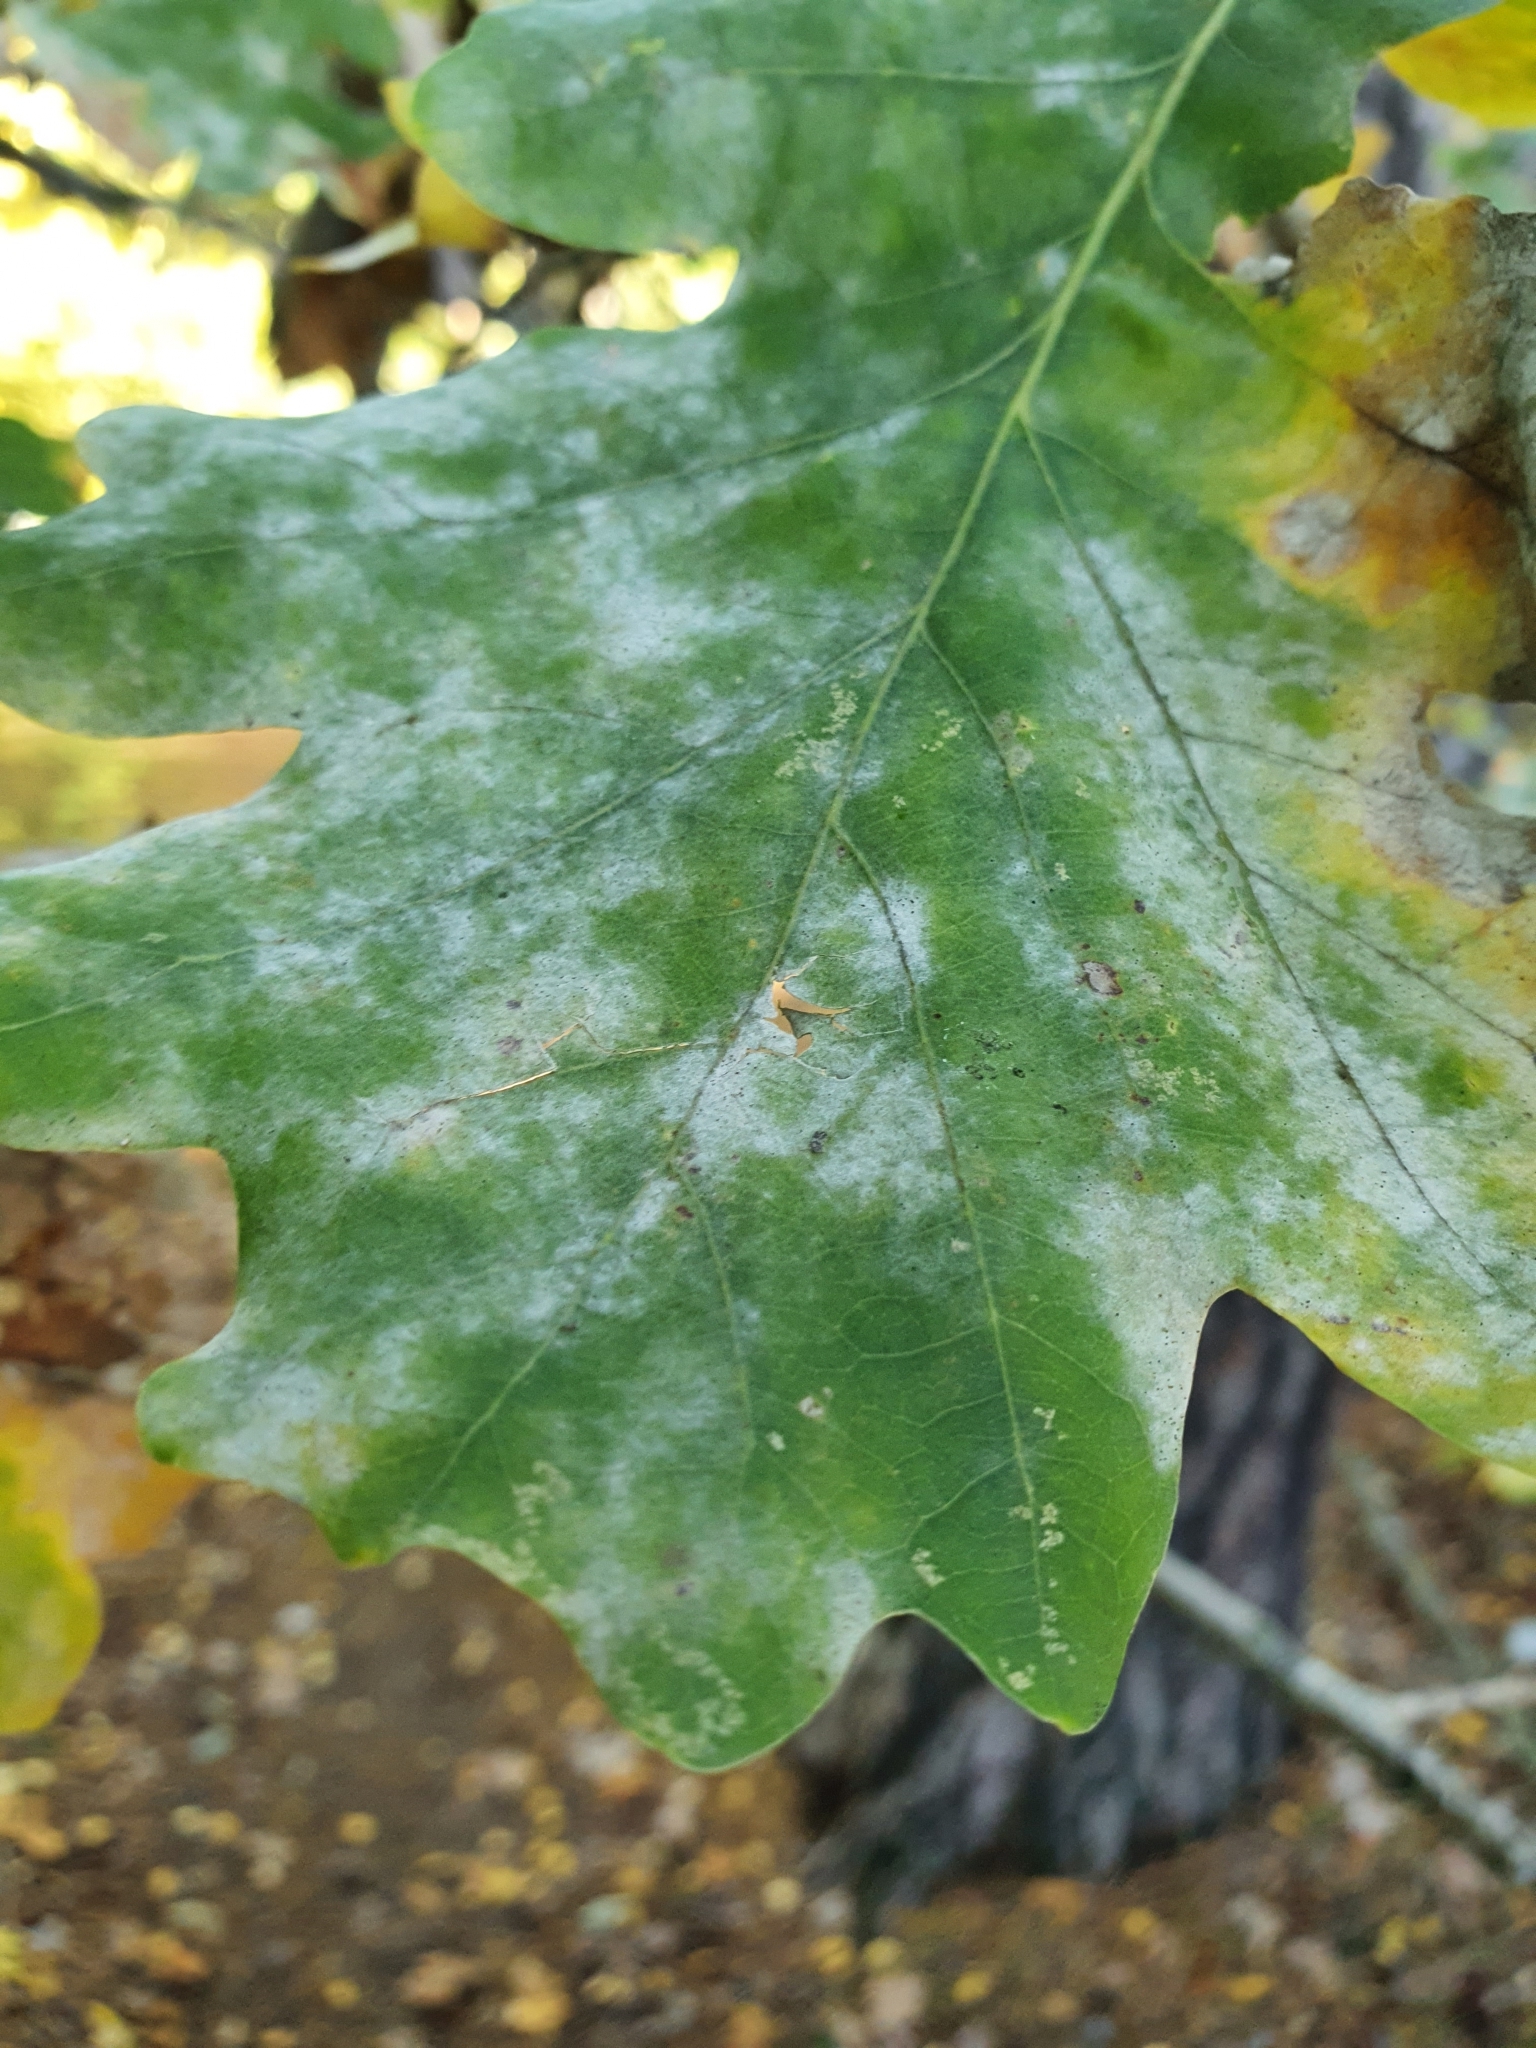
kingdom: Fungi
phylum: Ascomycota
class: Leotiomycetes
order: Helotiales
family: Erysiphaceae
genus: Erysiphe
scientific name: Erysiphe alphitoides
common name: Oak mildew
